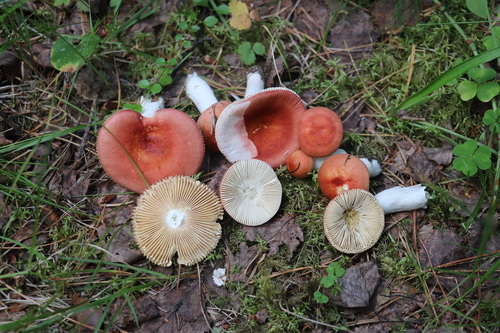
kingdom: Fungi
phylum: Basidiomycota
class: Agaricomycetes
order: Russulales
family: Russulaceae
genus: Russula
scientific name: Russula sanguinea
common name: Bloody brittlegill
